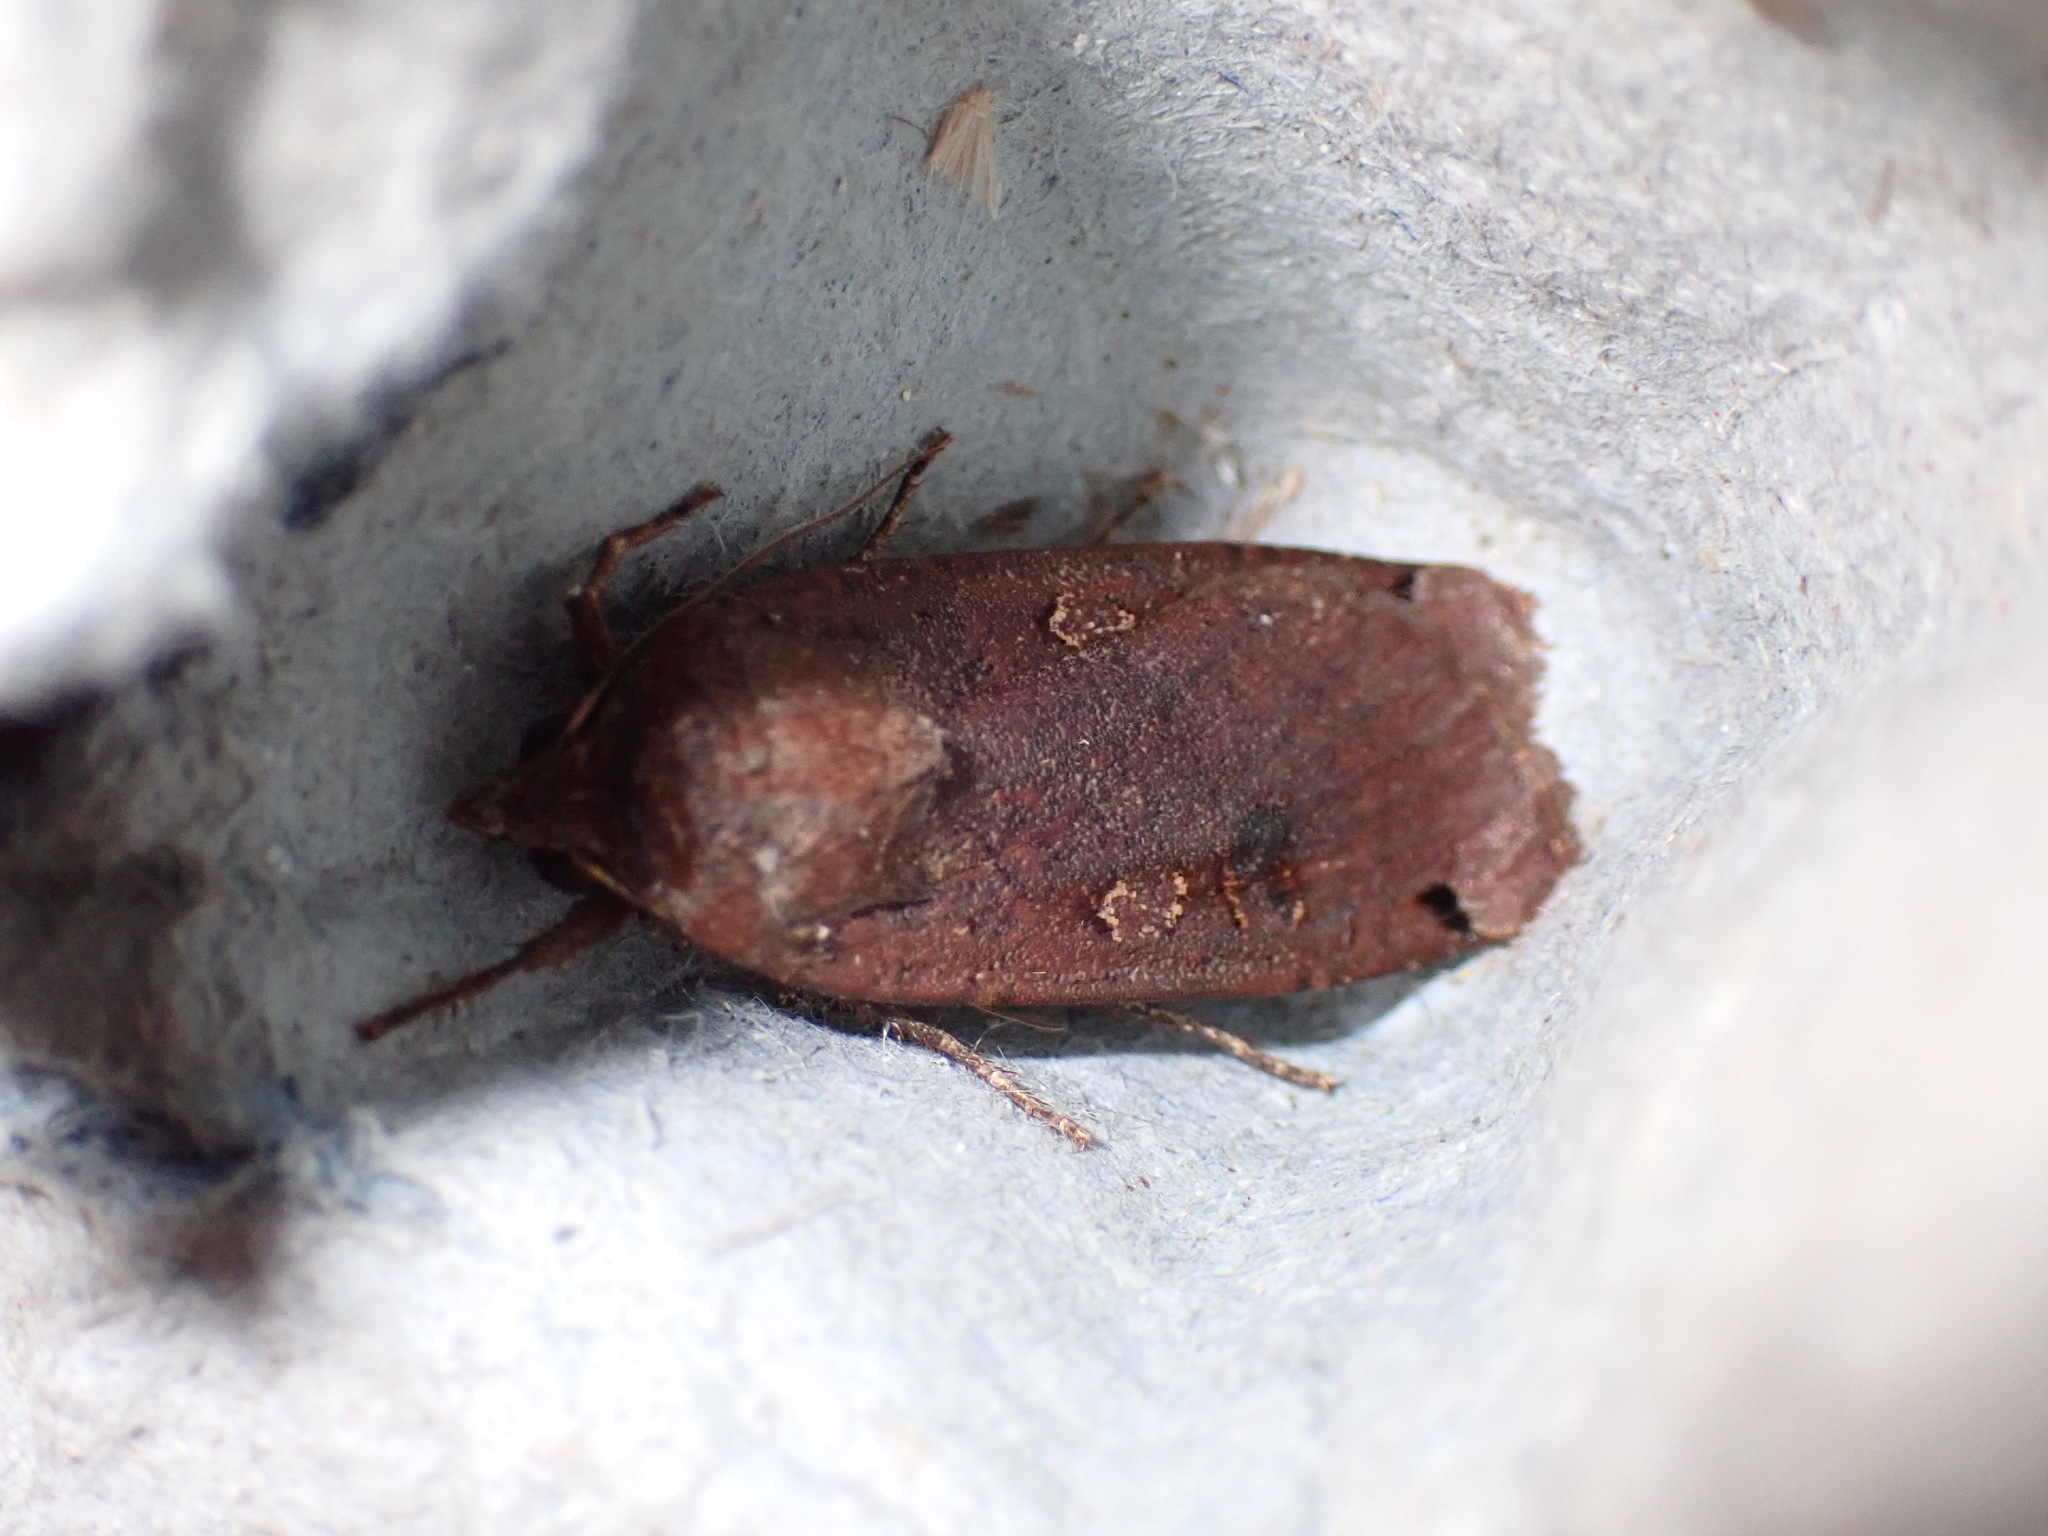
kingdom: Animalia
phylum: Arthropoda
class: Insecta
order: Lepidoptera
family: Noctuidae
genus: Noctua
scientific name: Noctua pronuba
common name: Large yellow underwing
